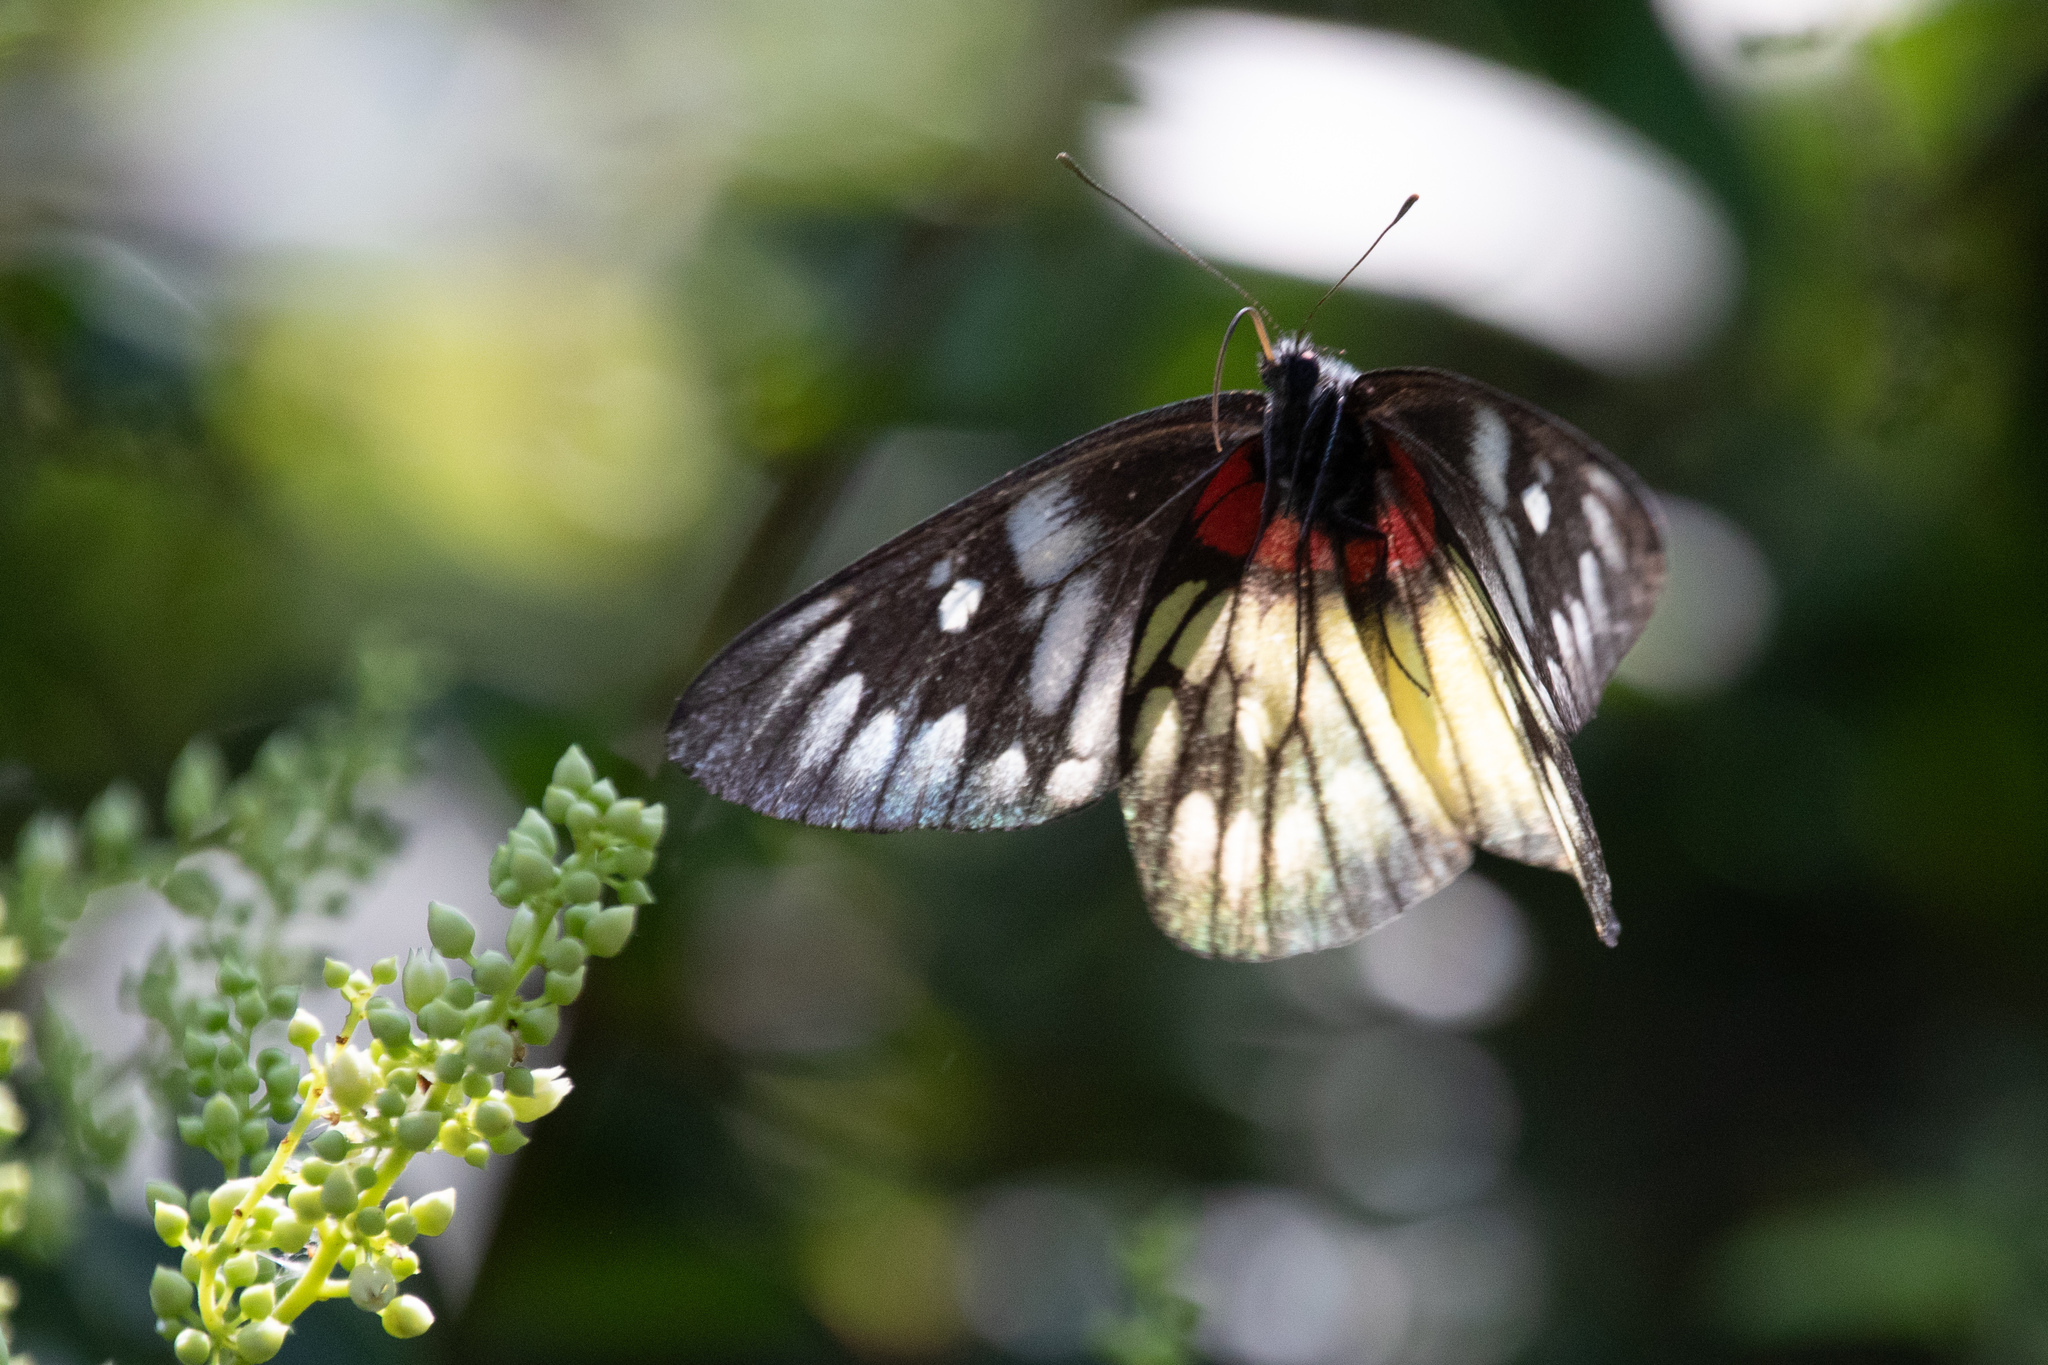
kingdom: Animalia
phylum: Arthropoda
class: Insecta
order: Lepidoptera
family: Pieridae
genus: Delias
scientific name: Delias pasithoe
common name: Red-base jezebel
